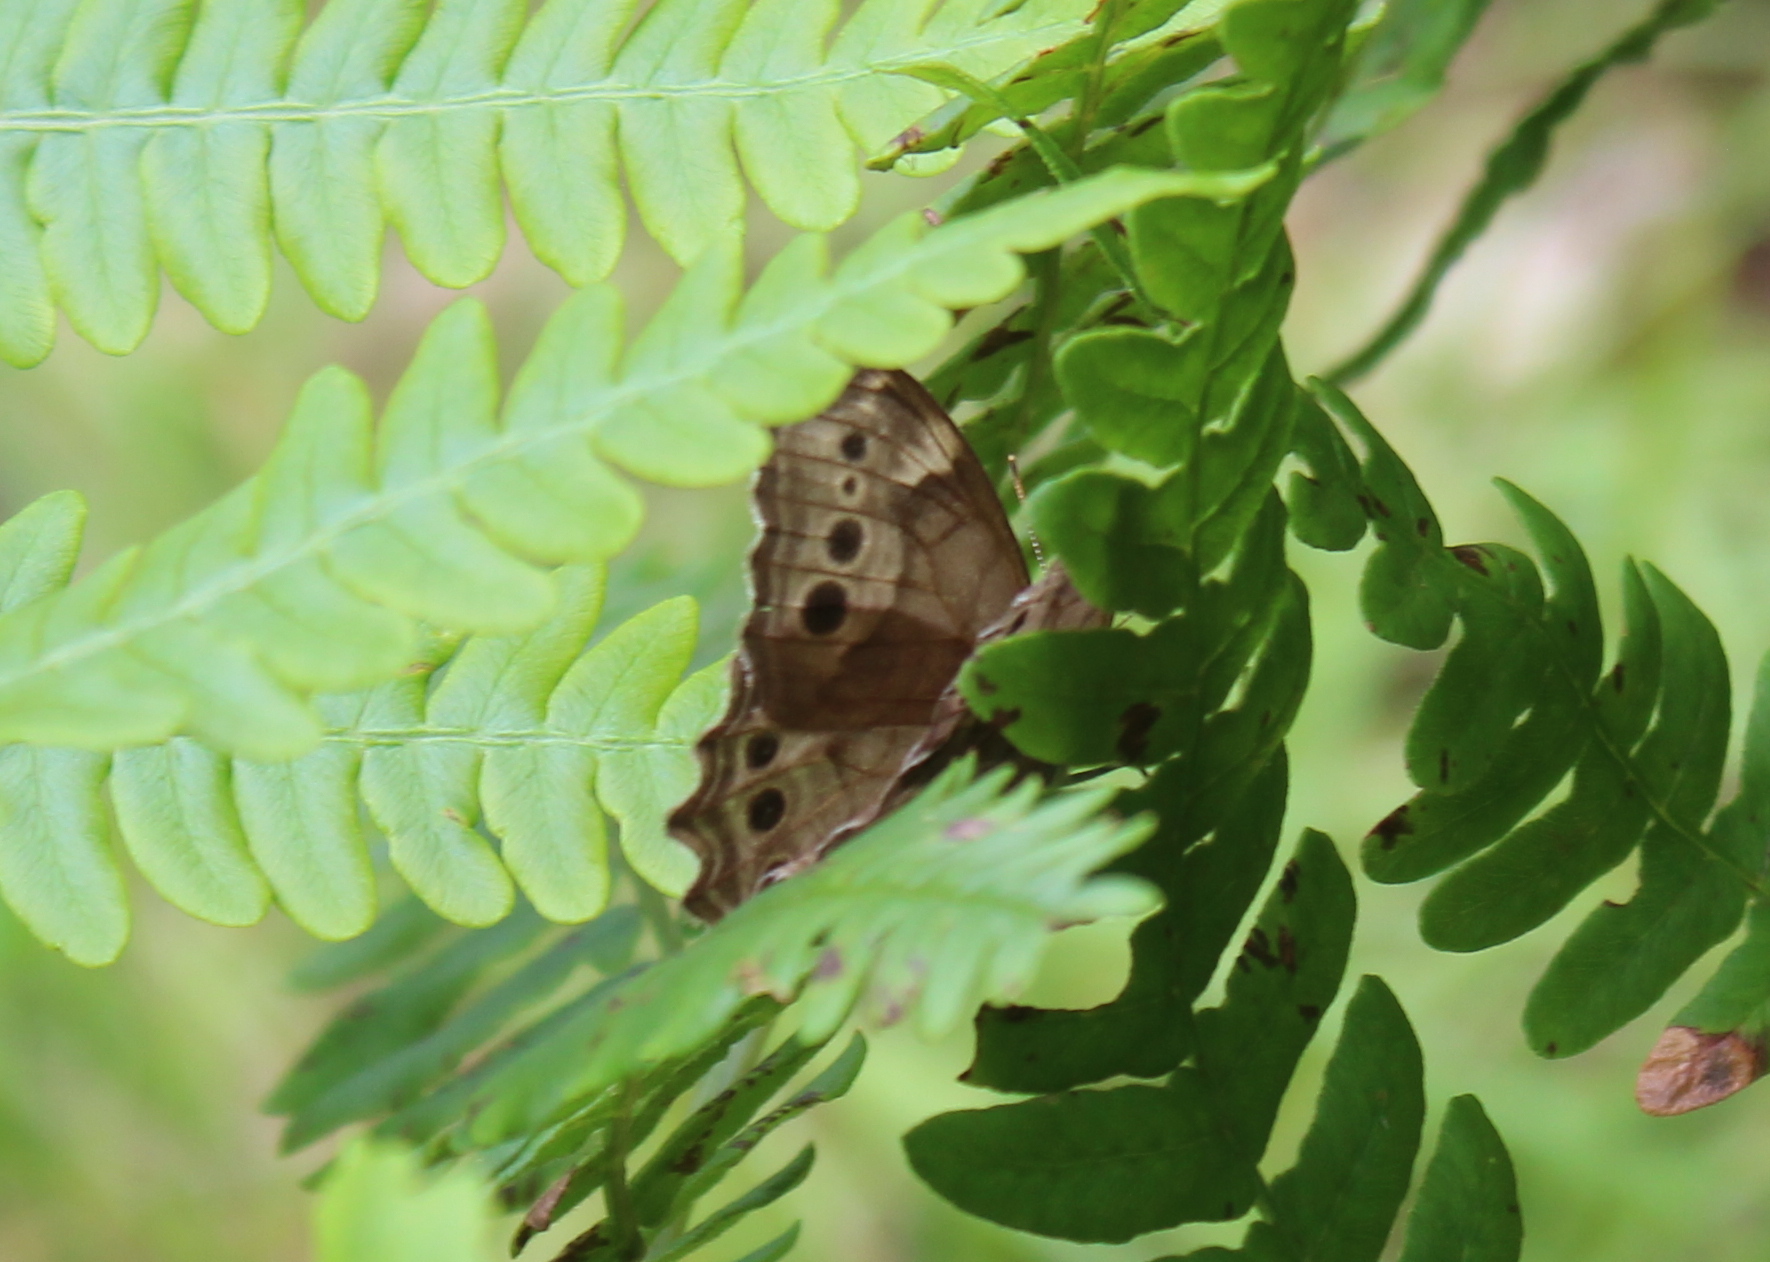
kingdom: Animalia
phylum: Arthropoda
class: Insecta
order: Lepidoptera
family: Nymphalidae
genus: Lethe
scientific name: Lethe anthedon
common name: Northern pearly-eye
